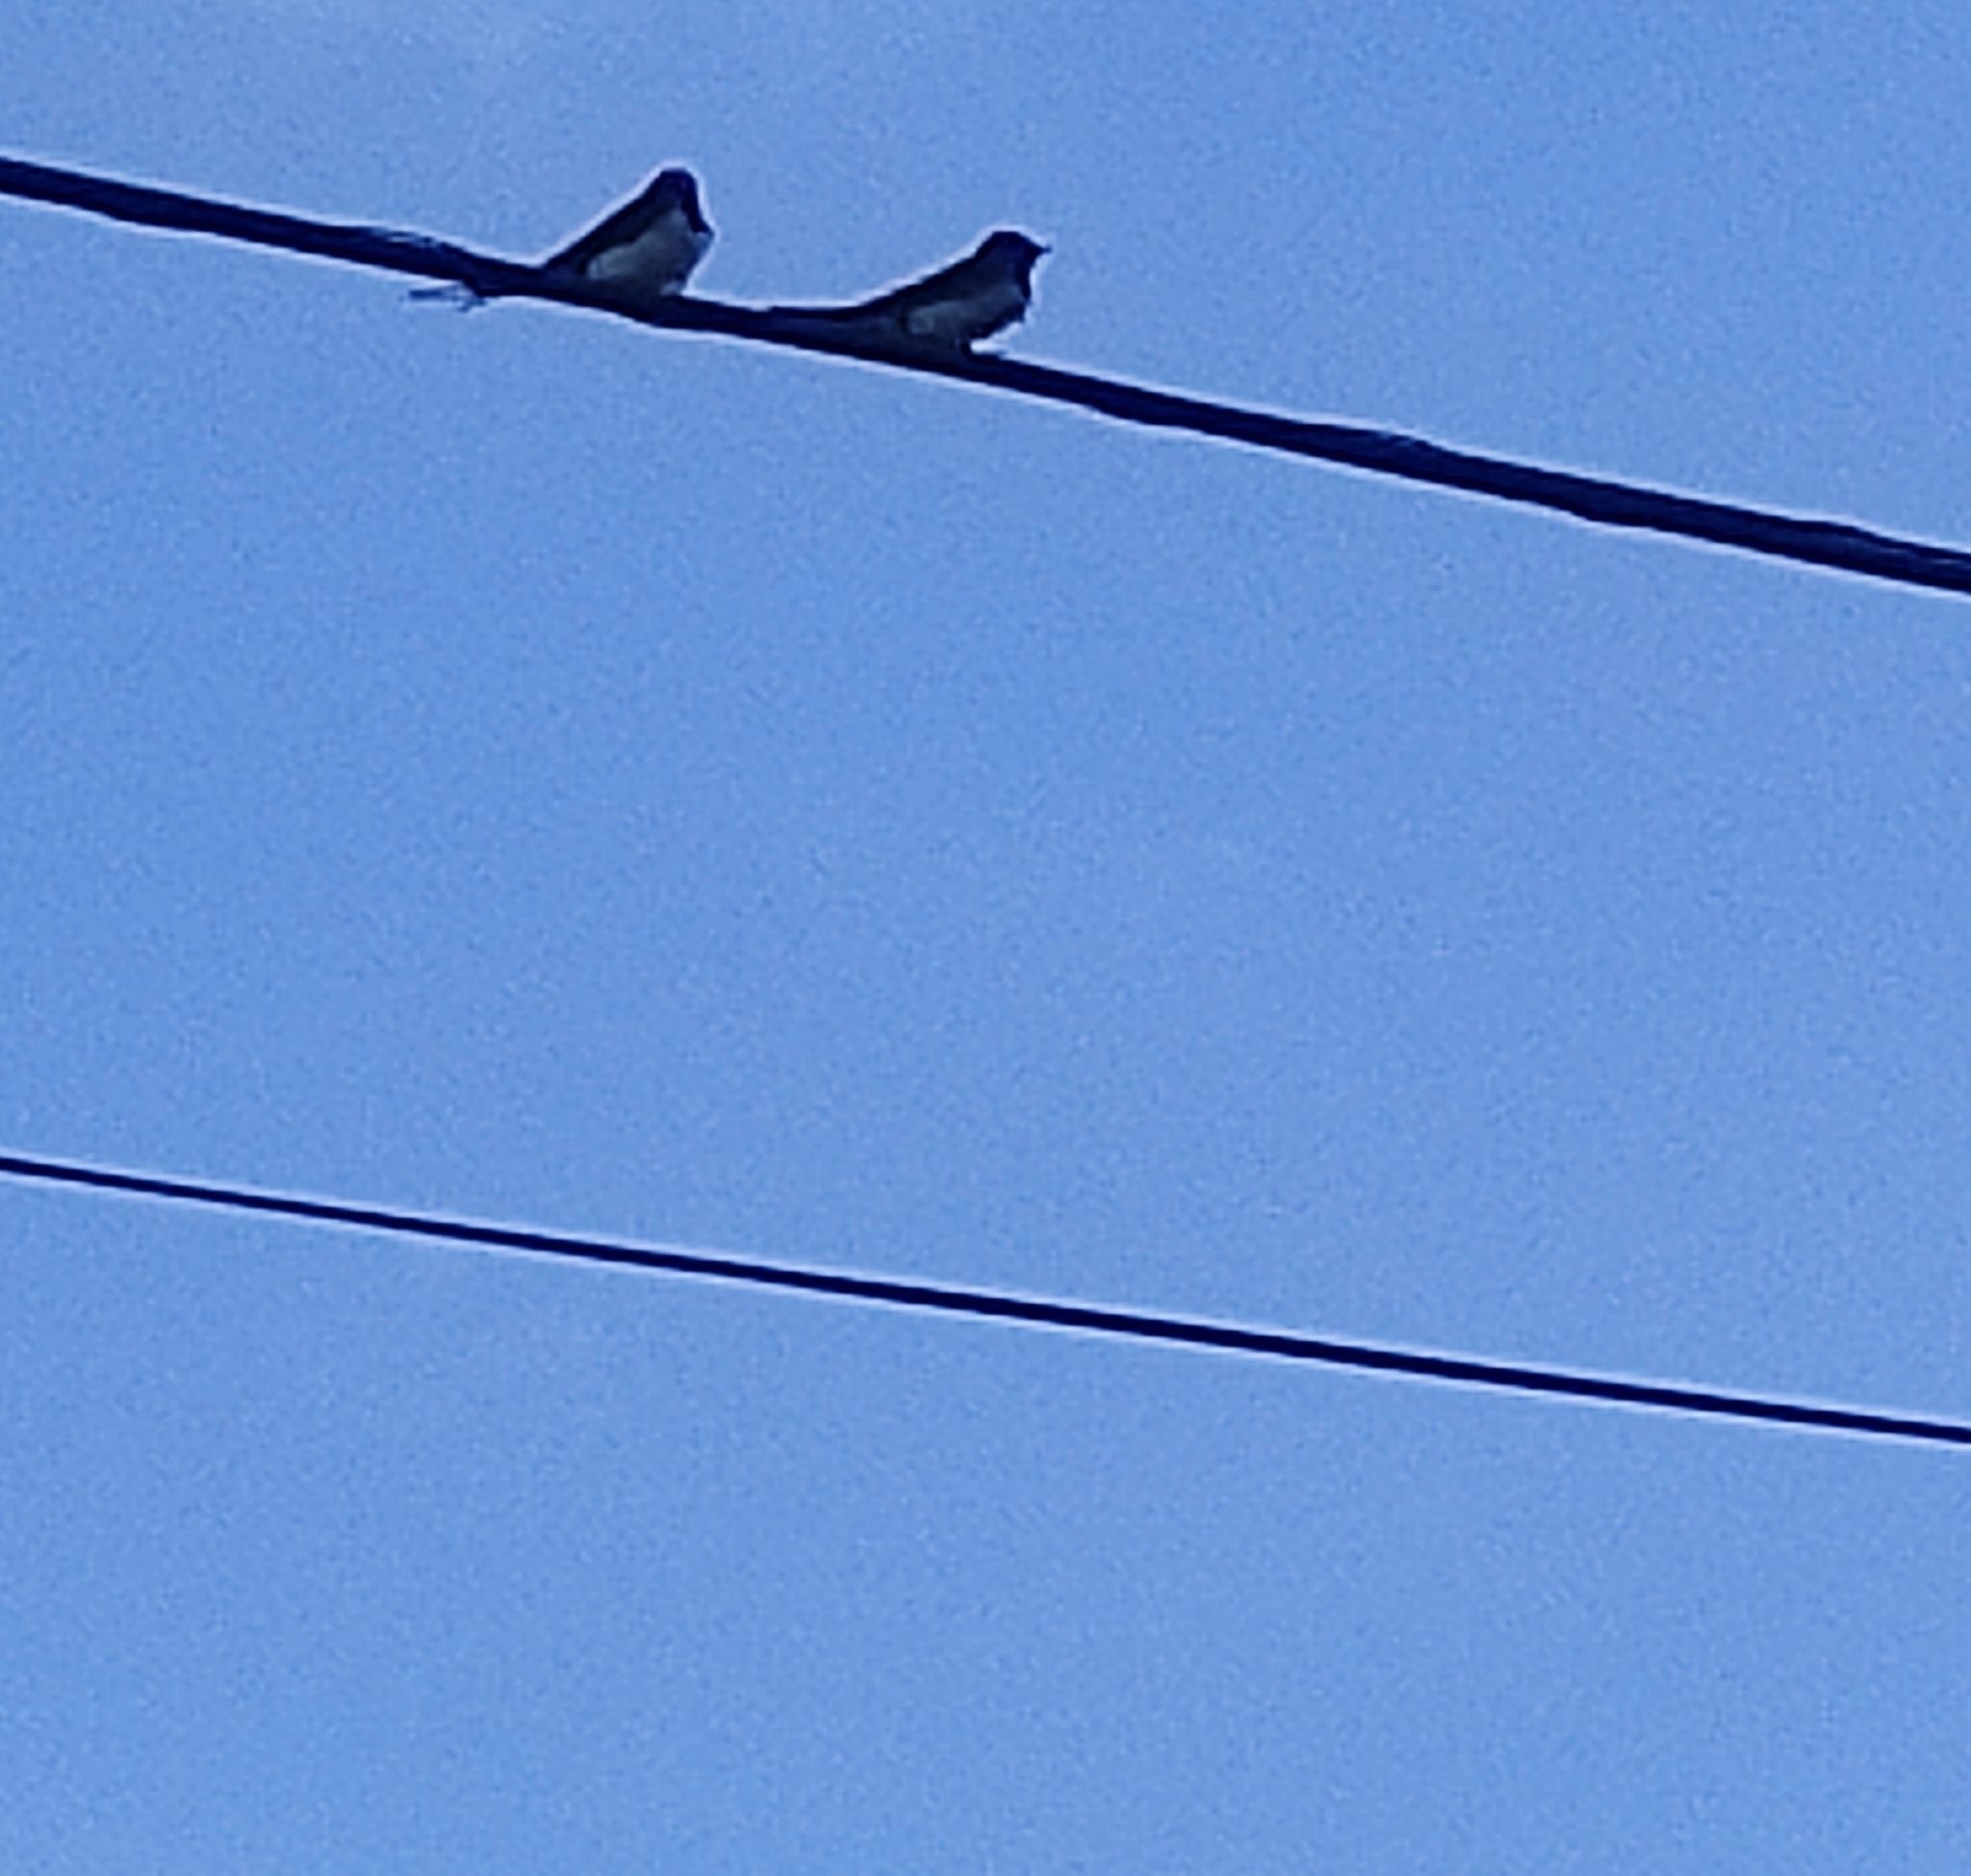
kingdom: Animalia
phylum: Chordata
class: Aves
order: Passeriformes
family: Hirundinidae
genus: Hirundo
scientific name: Hirundo rustica
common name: Barn swallow
